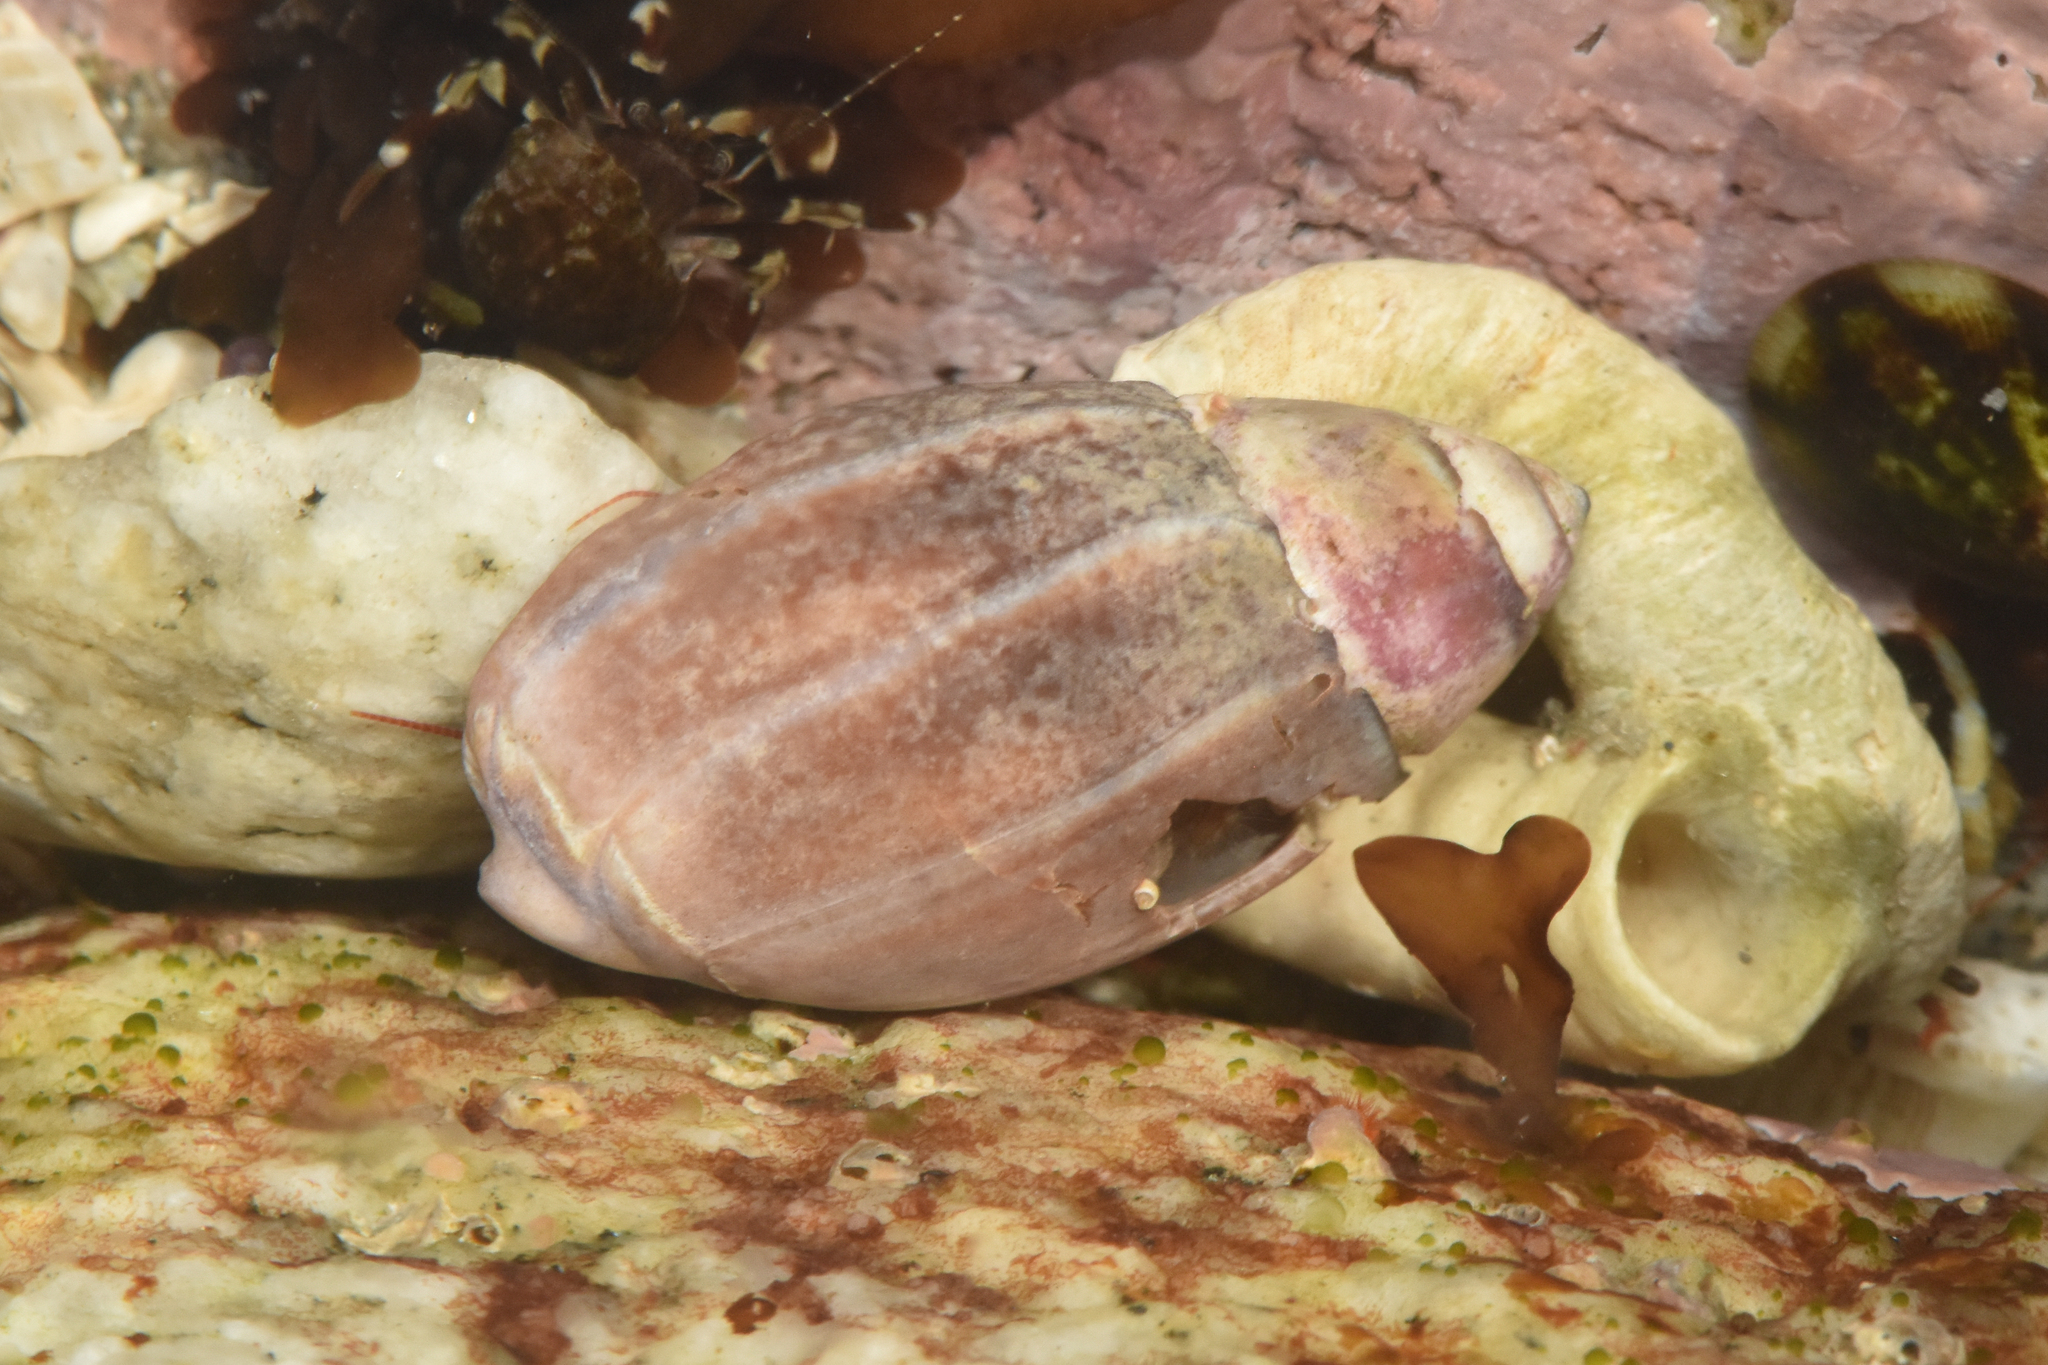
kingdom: Animalia
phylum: Mollusca
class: Gastropoda
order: Neogastropoda
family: Olividae
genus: Callianax
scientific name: Callianax biplicata
